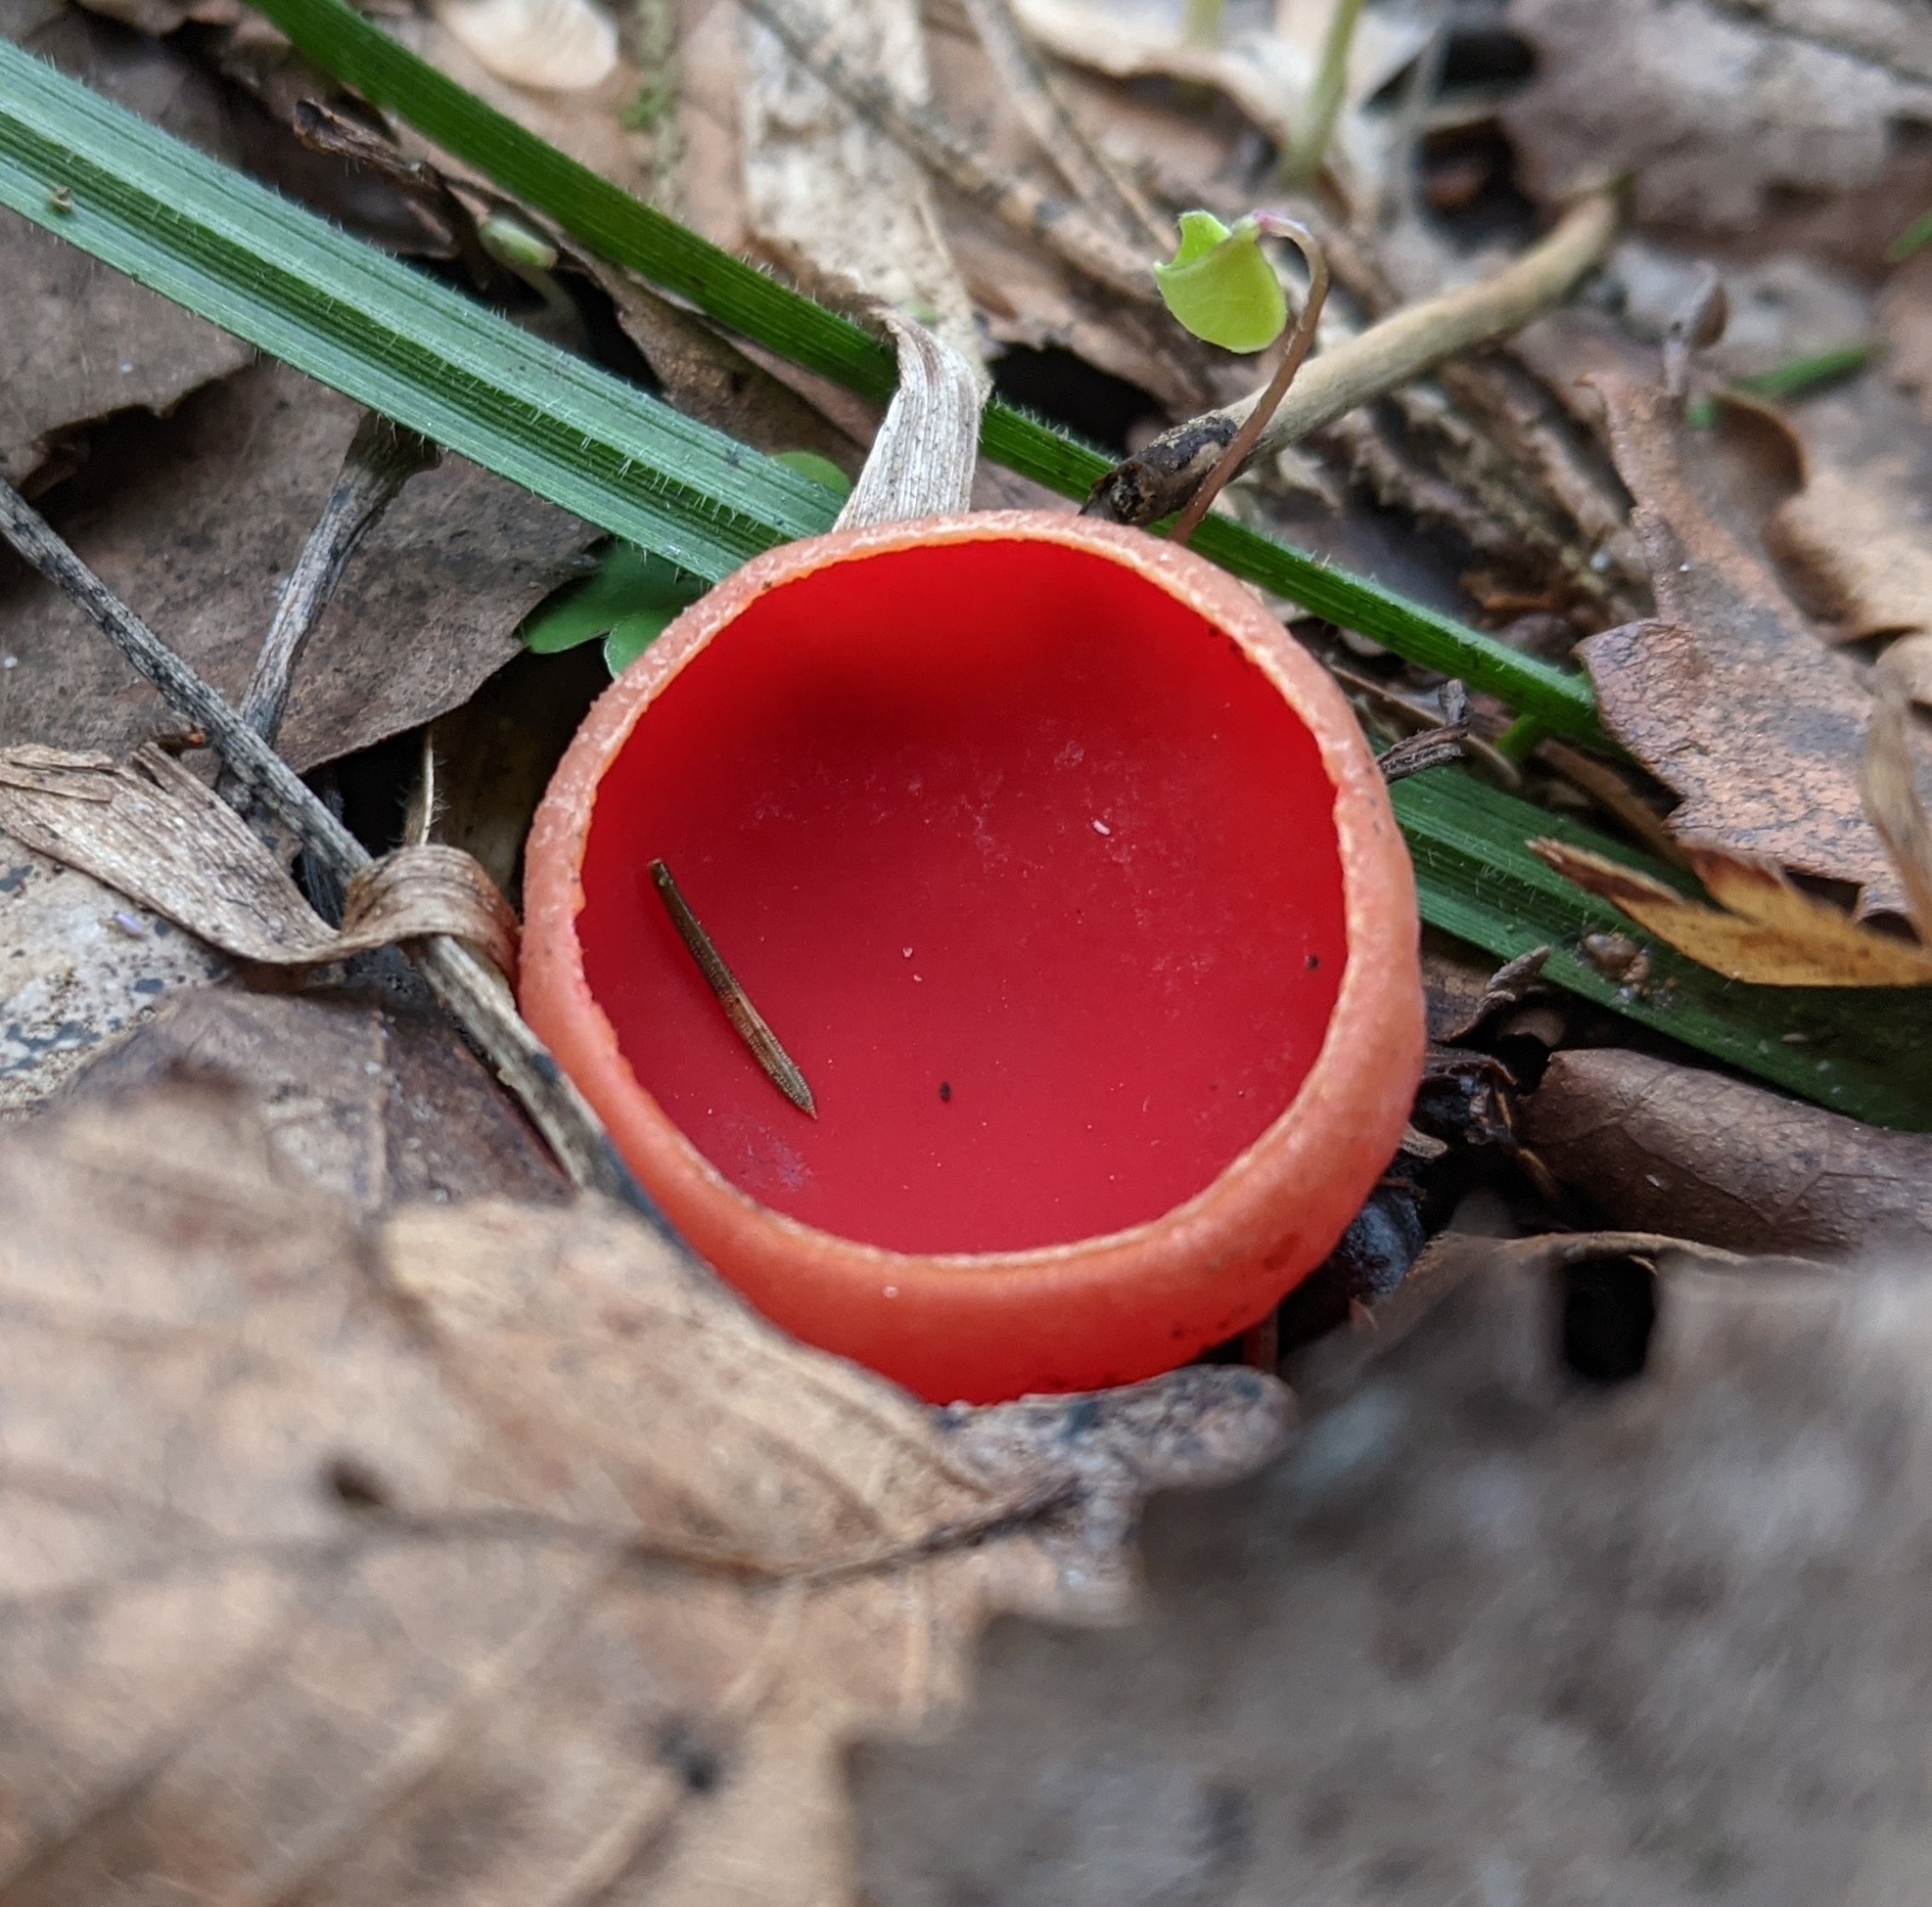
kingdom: Fungi
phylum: Ascomycota
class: Pezizomycetes
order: Pezizales
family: Sarcoscyphaceae
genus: Sarcoscypha
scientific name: Sarcoscypha austriaca
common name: Scarlet elfcup
